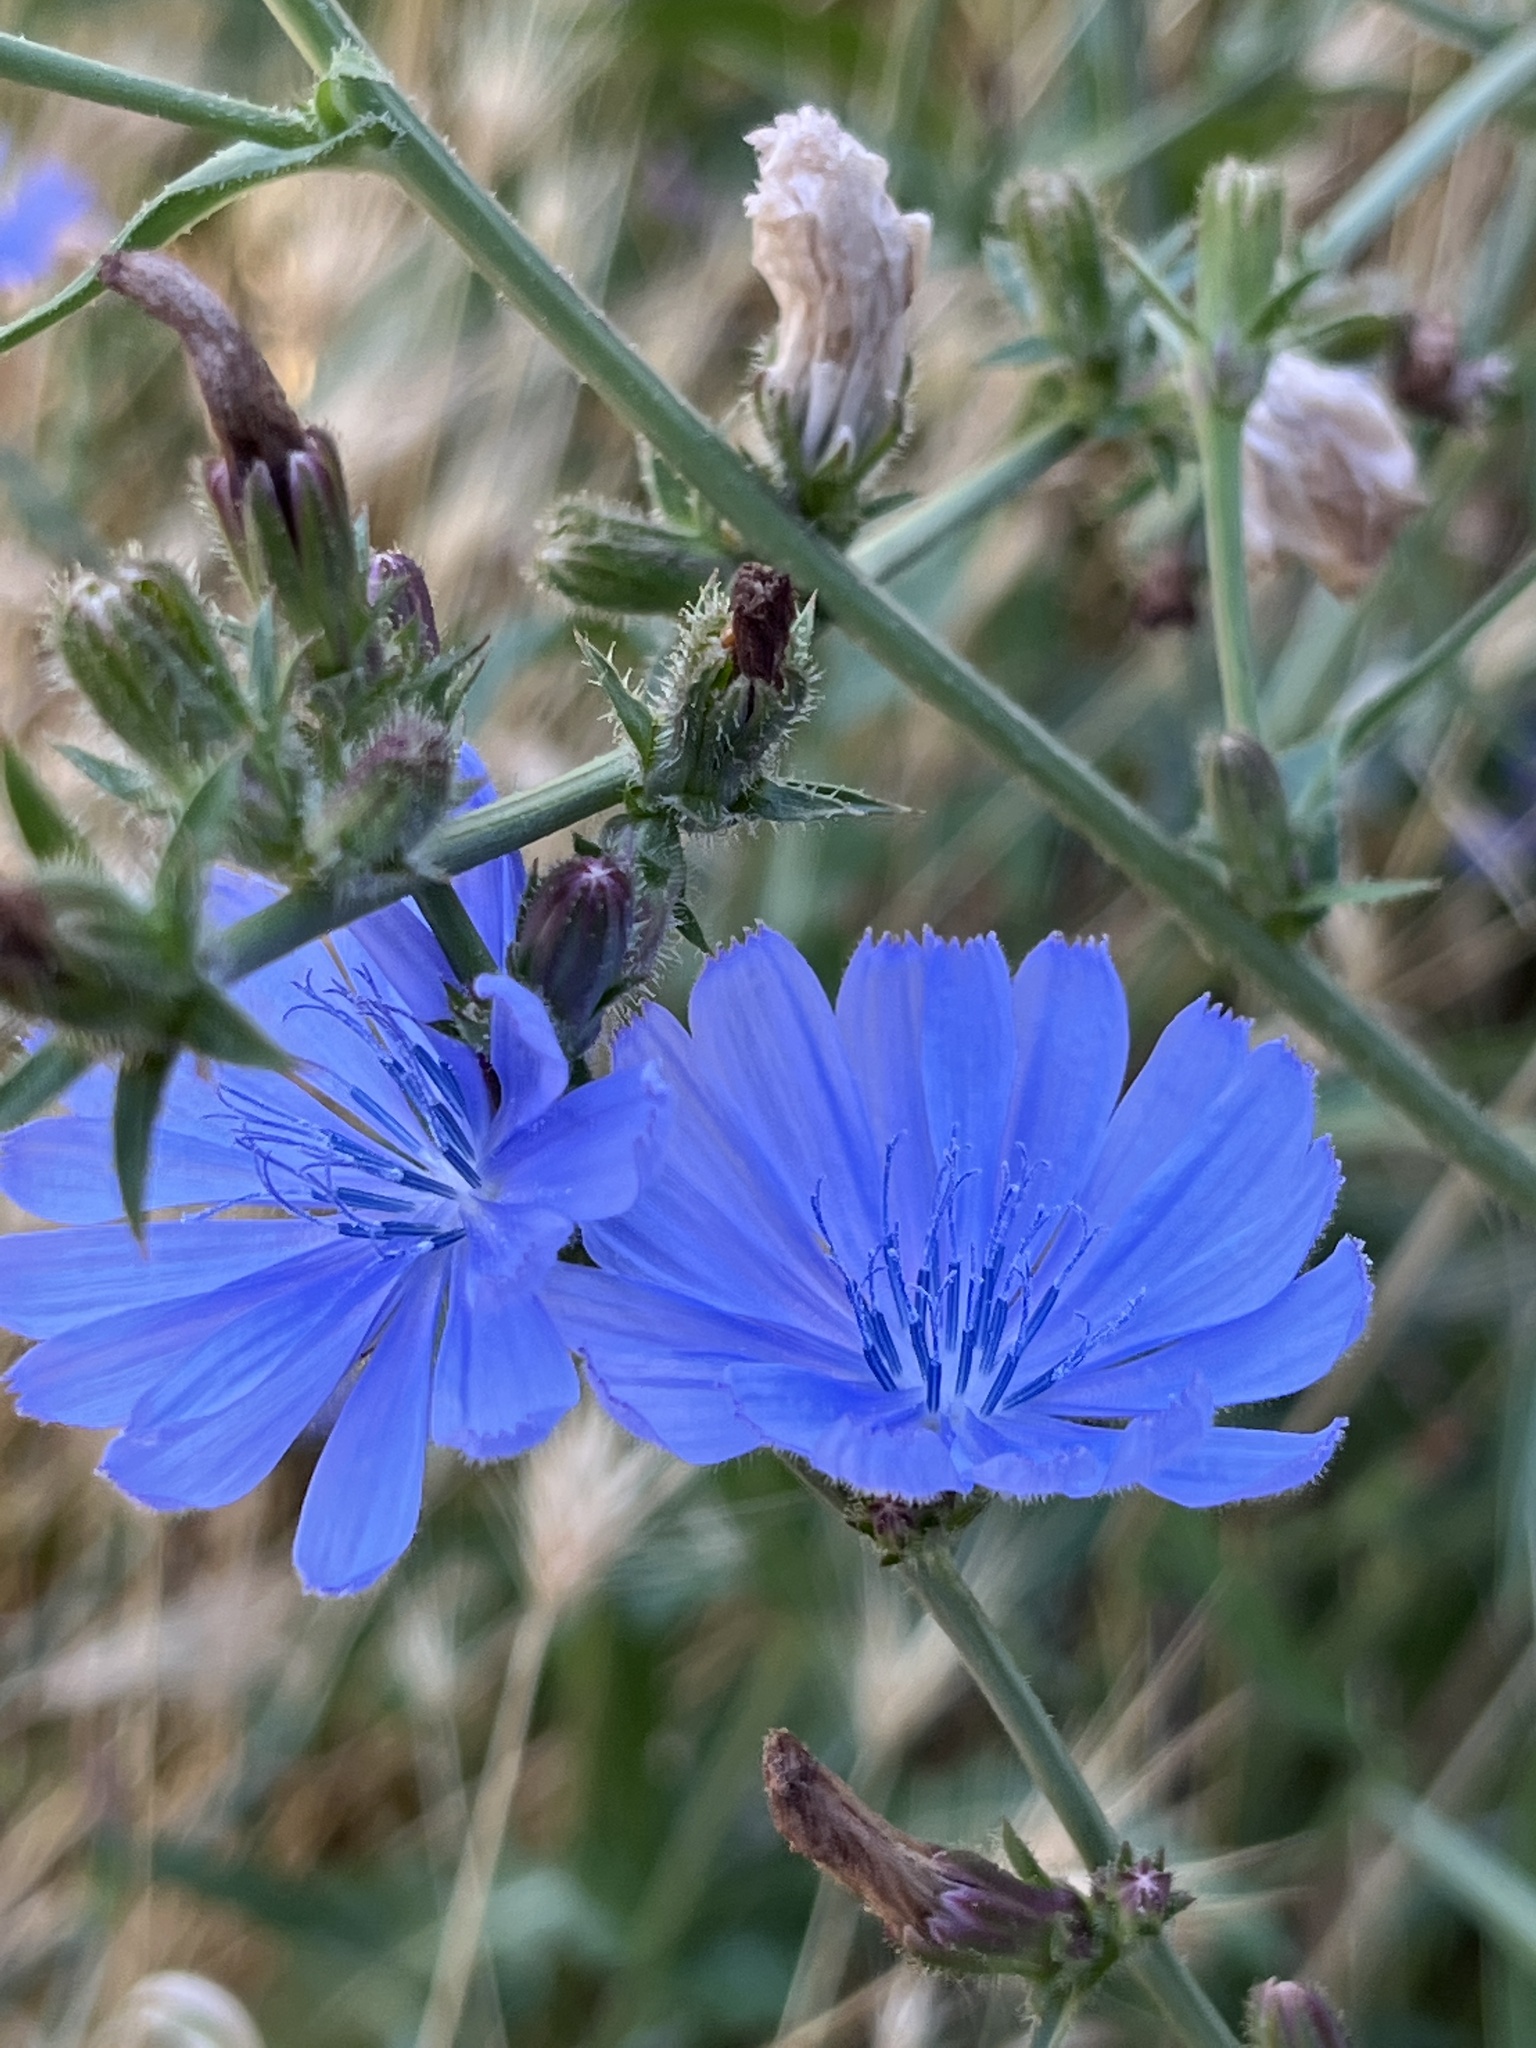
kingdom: Plantae
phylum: Tracheophyta
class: Magnoliopsida
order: Asterales
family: Asteraceae
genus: Cichorium
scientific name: Cichorium intybus
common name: Chicory
